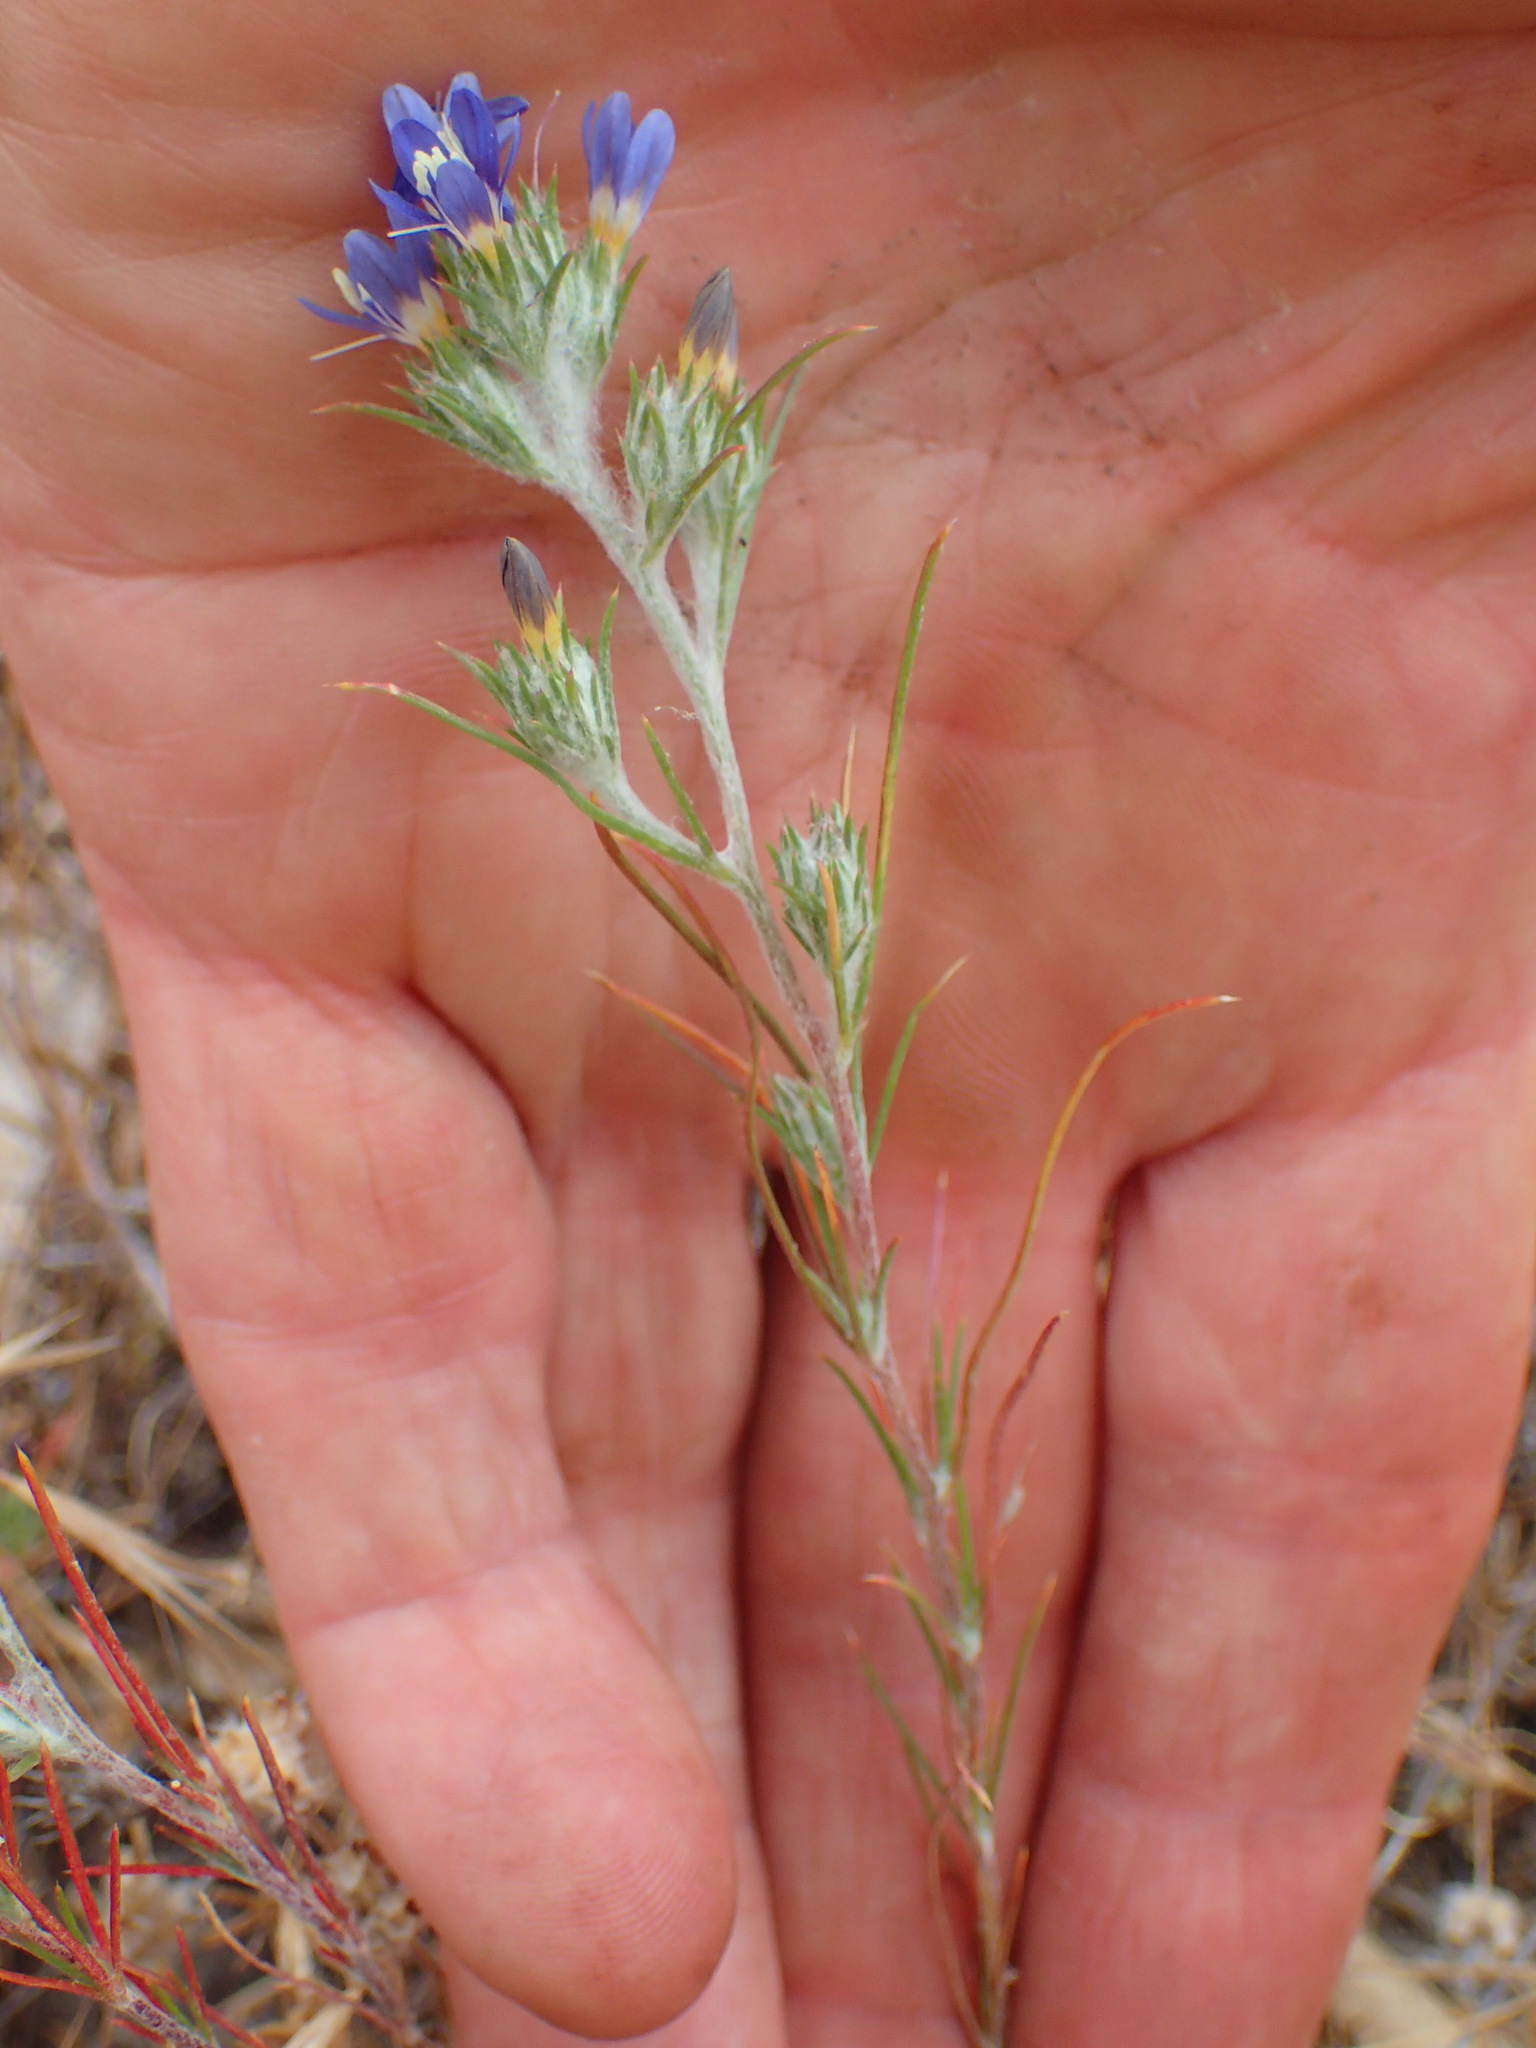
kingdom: Plantae
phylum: Tracheophyta
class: Magnoliopsida
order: Ericales
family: Polemoniaceae
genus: Eriastrum
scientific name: Eriastrum sapphirinum
